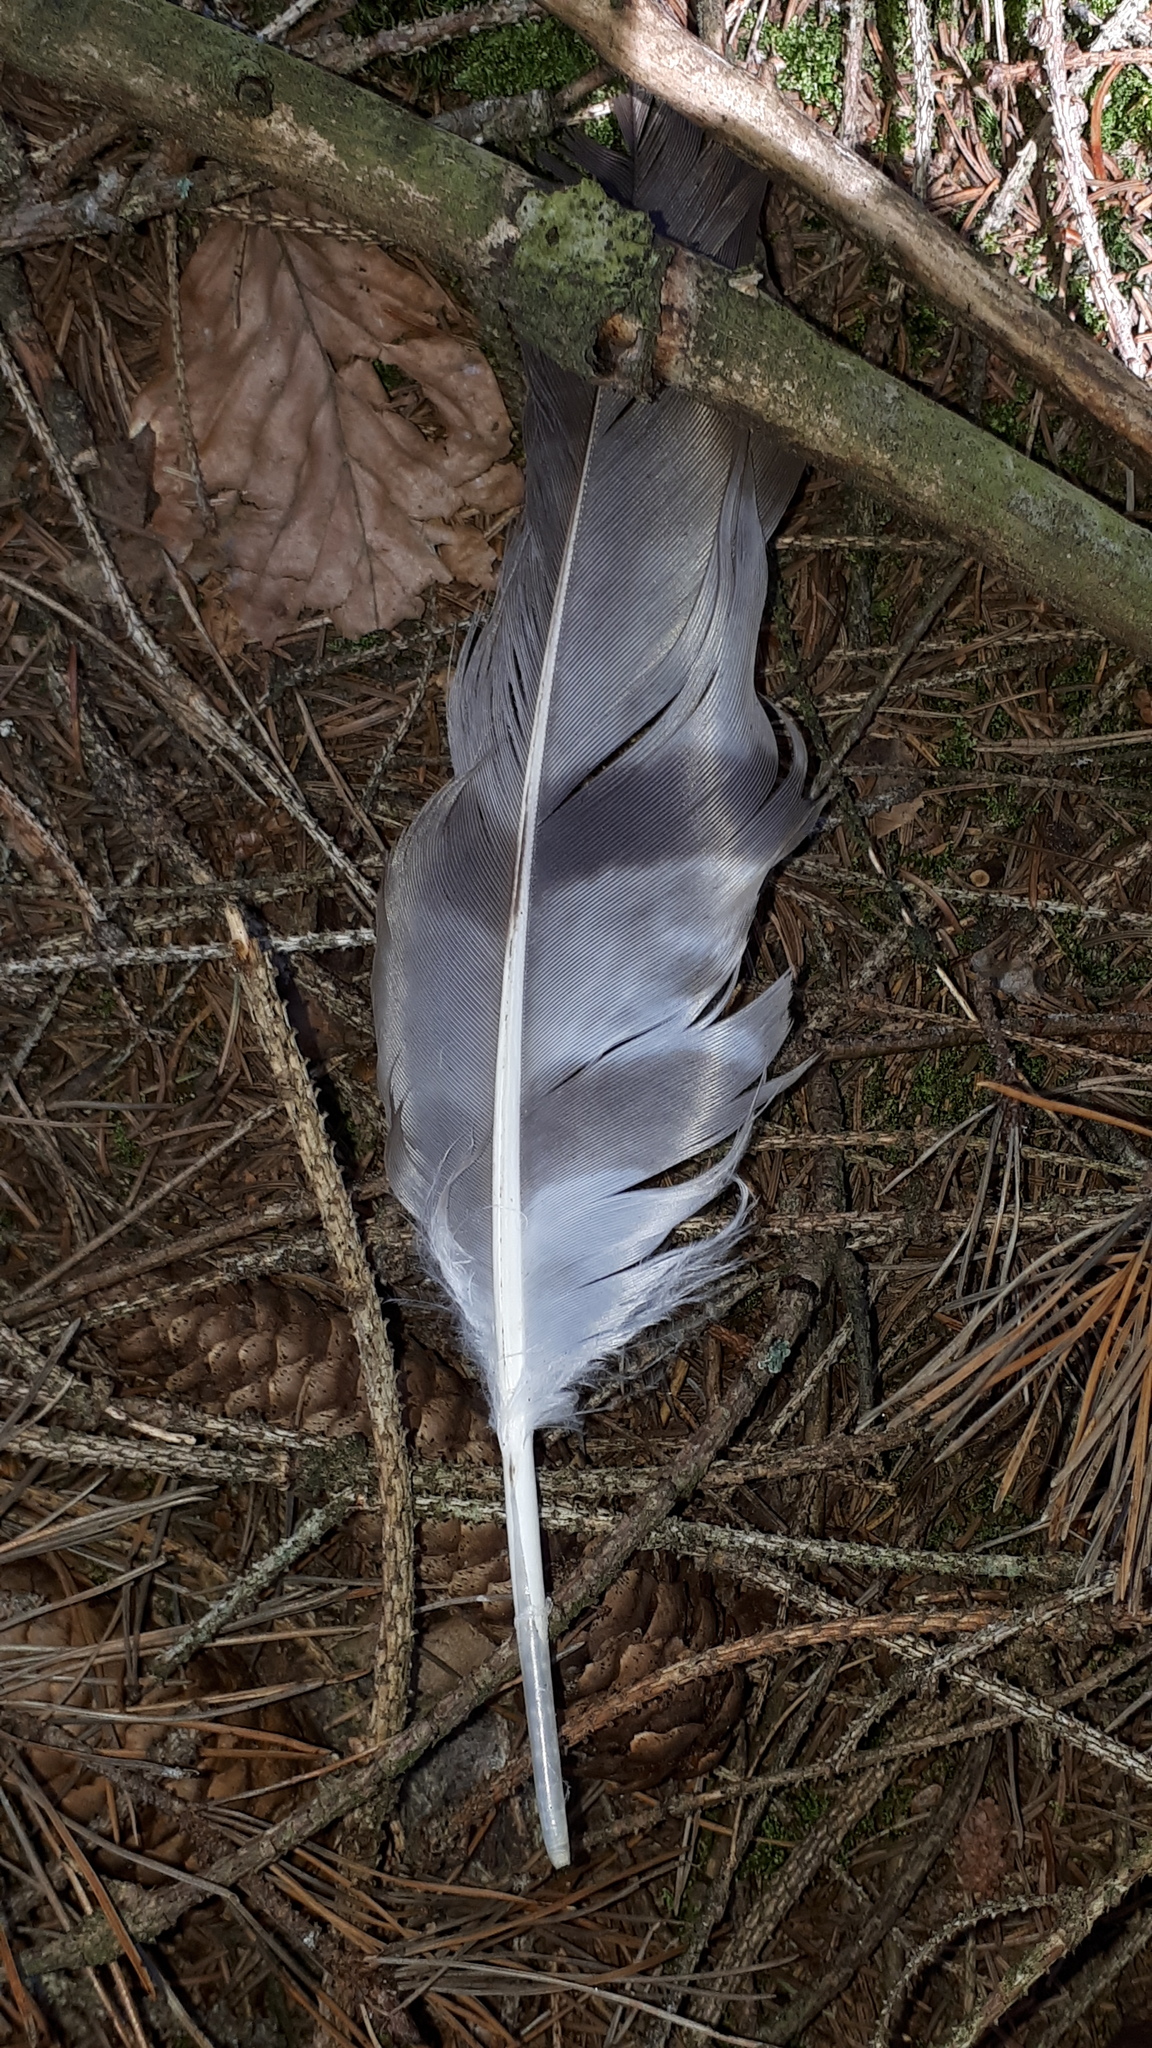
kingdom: Animalia
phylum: Chordata
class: Aves
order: Accipitriformes
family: Accipitridae
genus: Pernis
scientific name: Pernis apivorus
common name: European honey buzzard
